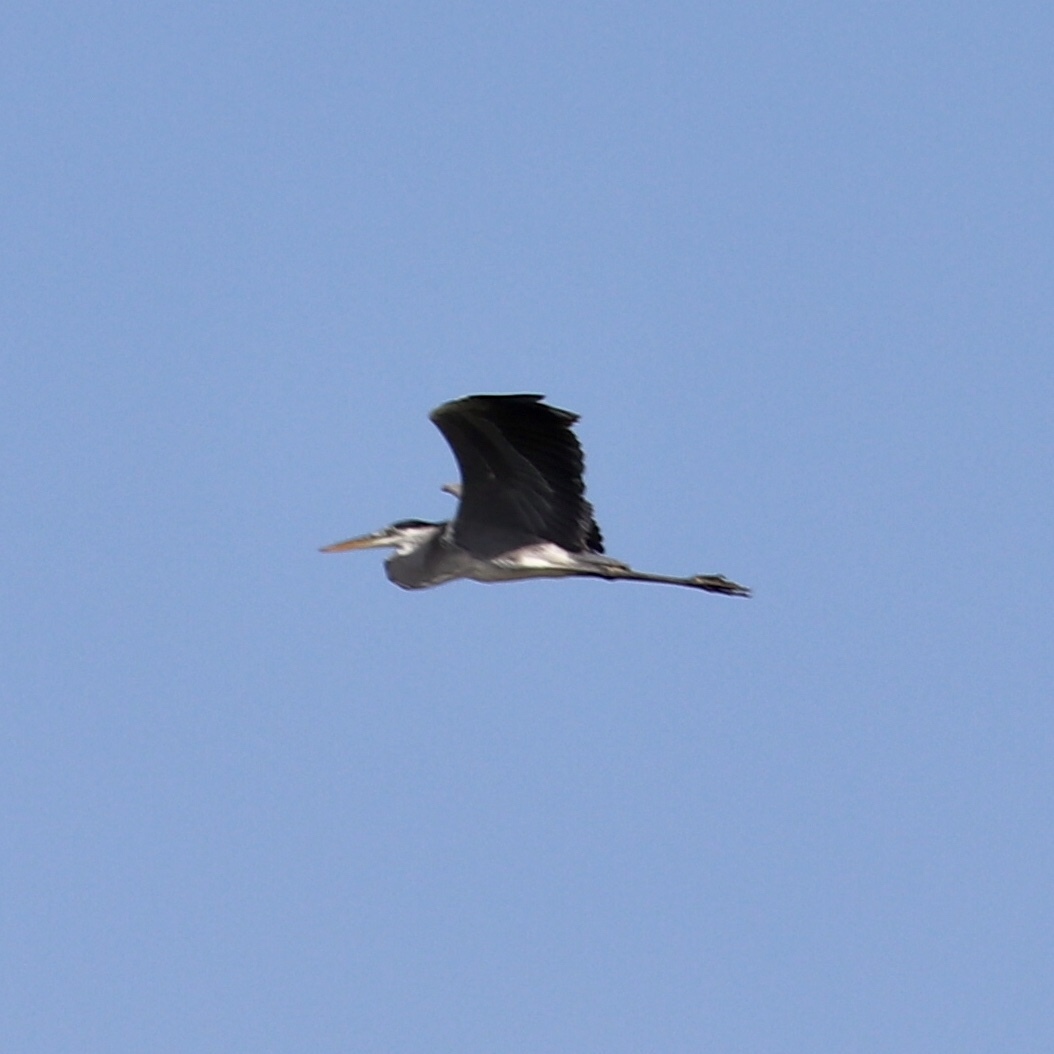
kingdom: Animalia
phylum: Chordata
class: Aves
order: Pelecaniformes
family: Ardeidae
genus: Ardea
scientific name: Ardea herodias
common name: Great blue heron
